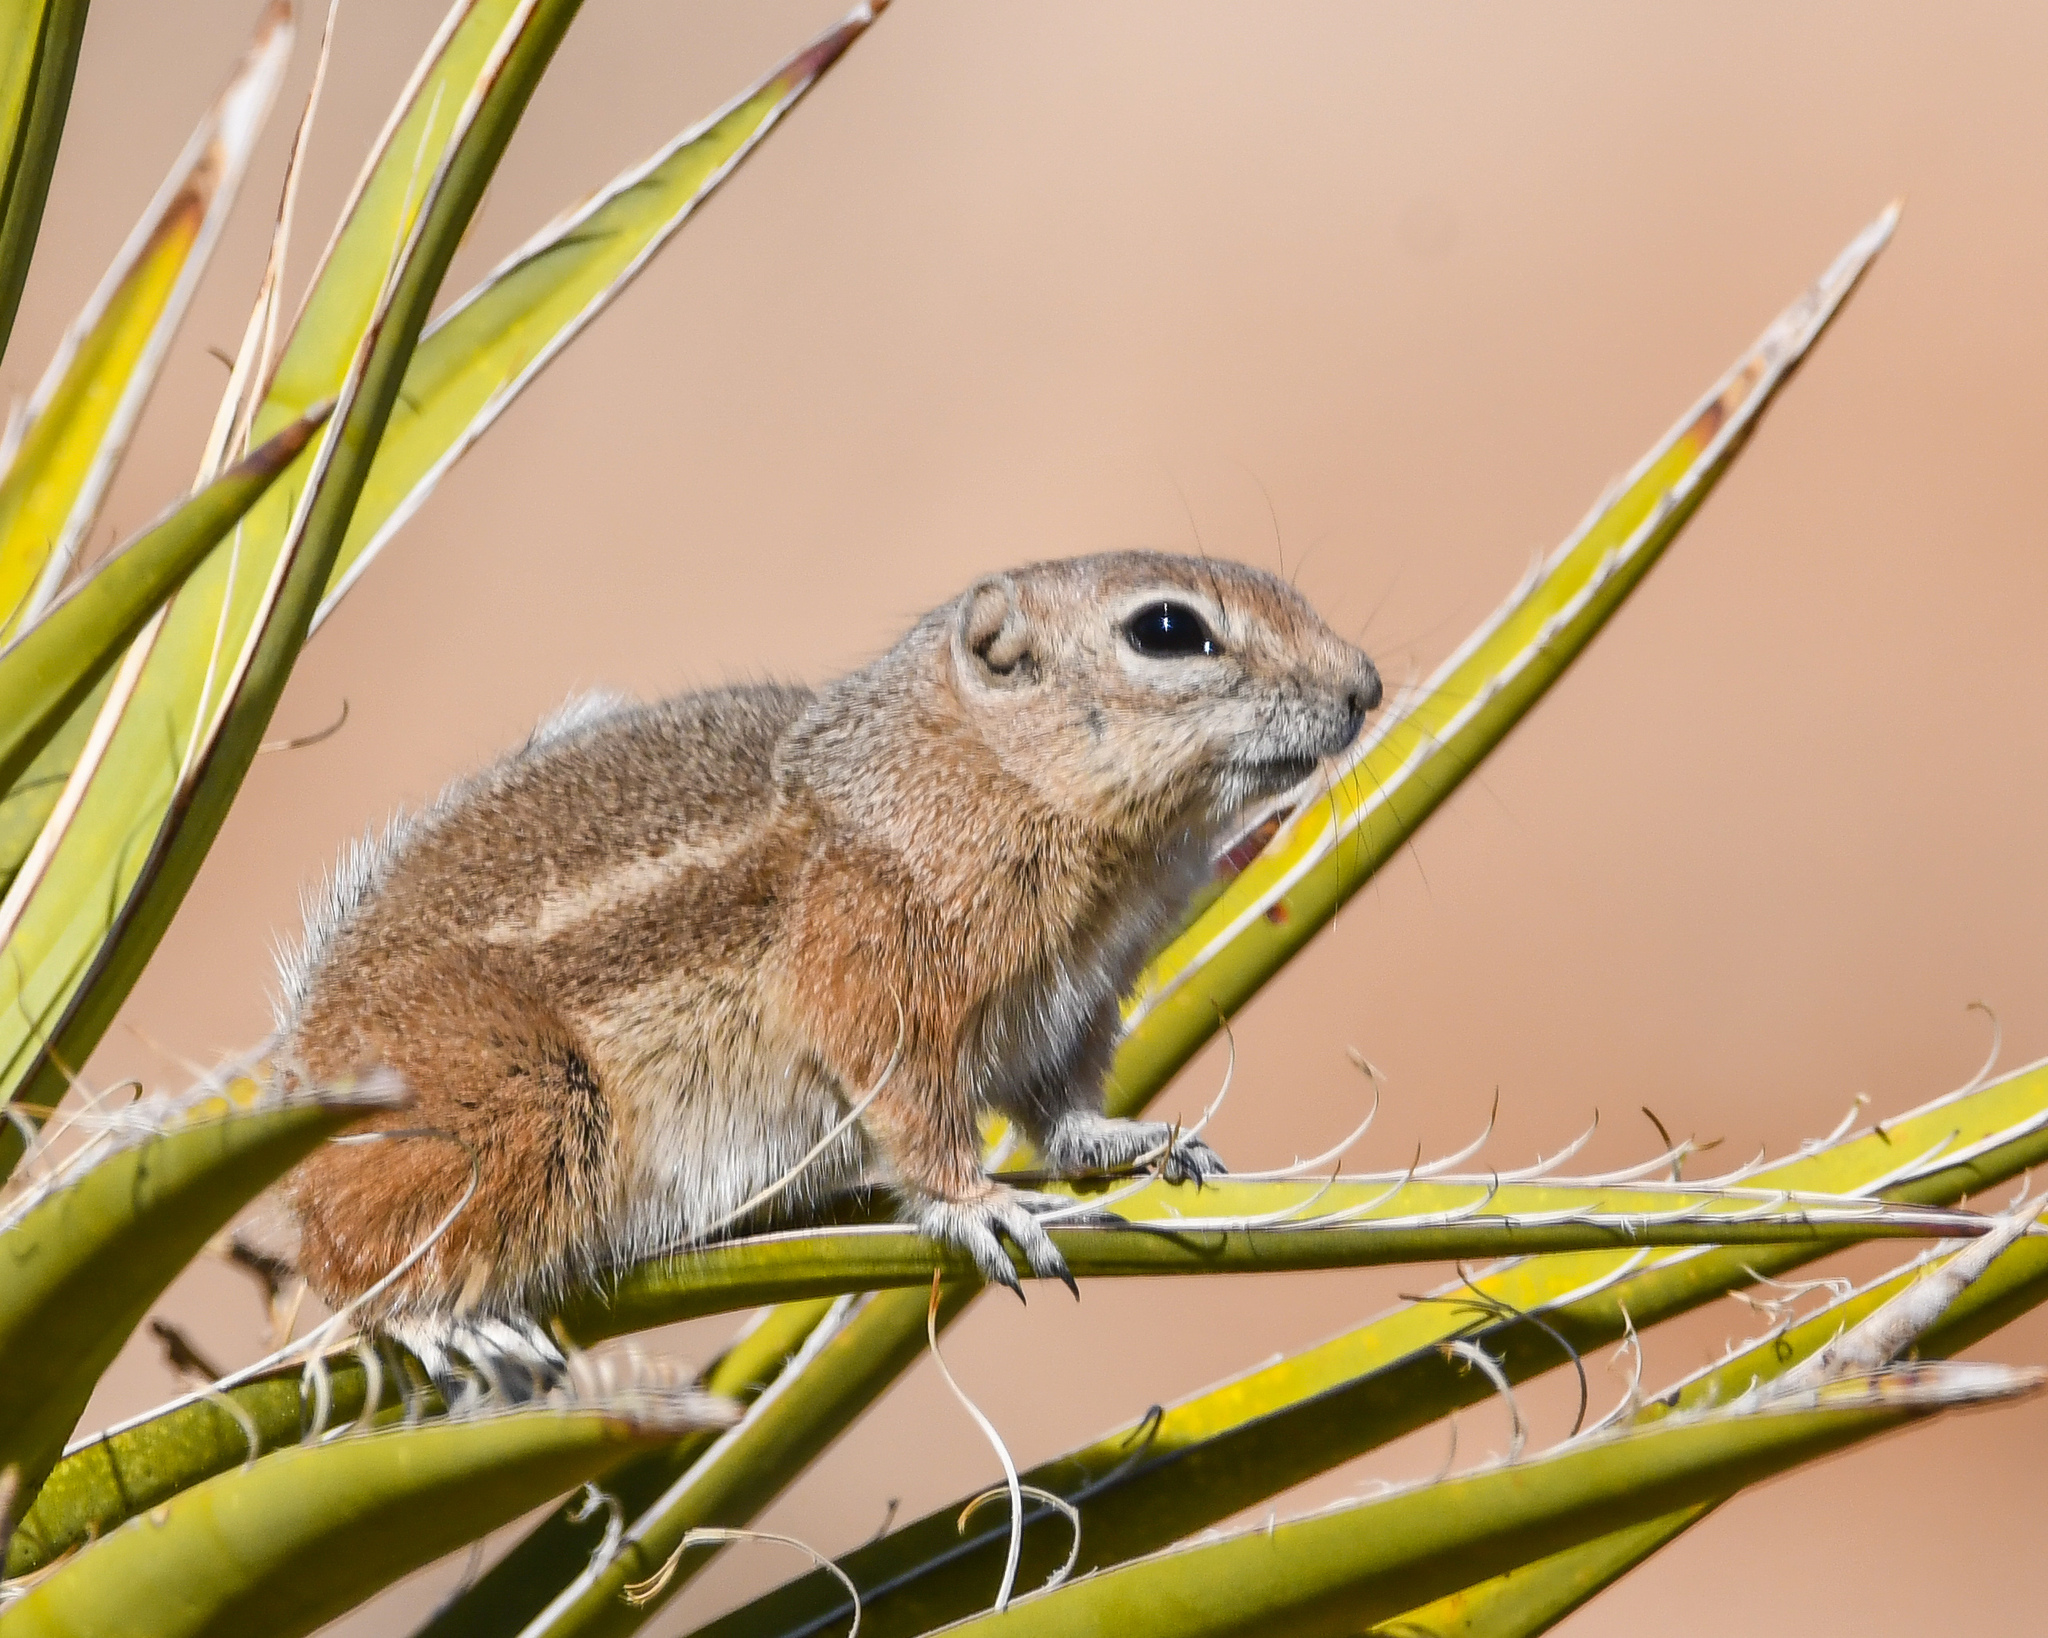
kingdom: Animalia
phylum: Chordata
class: Mammalia
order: Rodentia
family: Sciuridae
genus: Ammospermophilus
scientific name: Ammospermophilus leucurus
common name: White-tailed antelope squirrel
